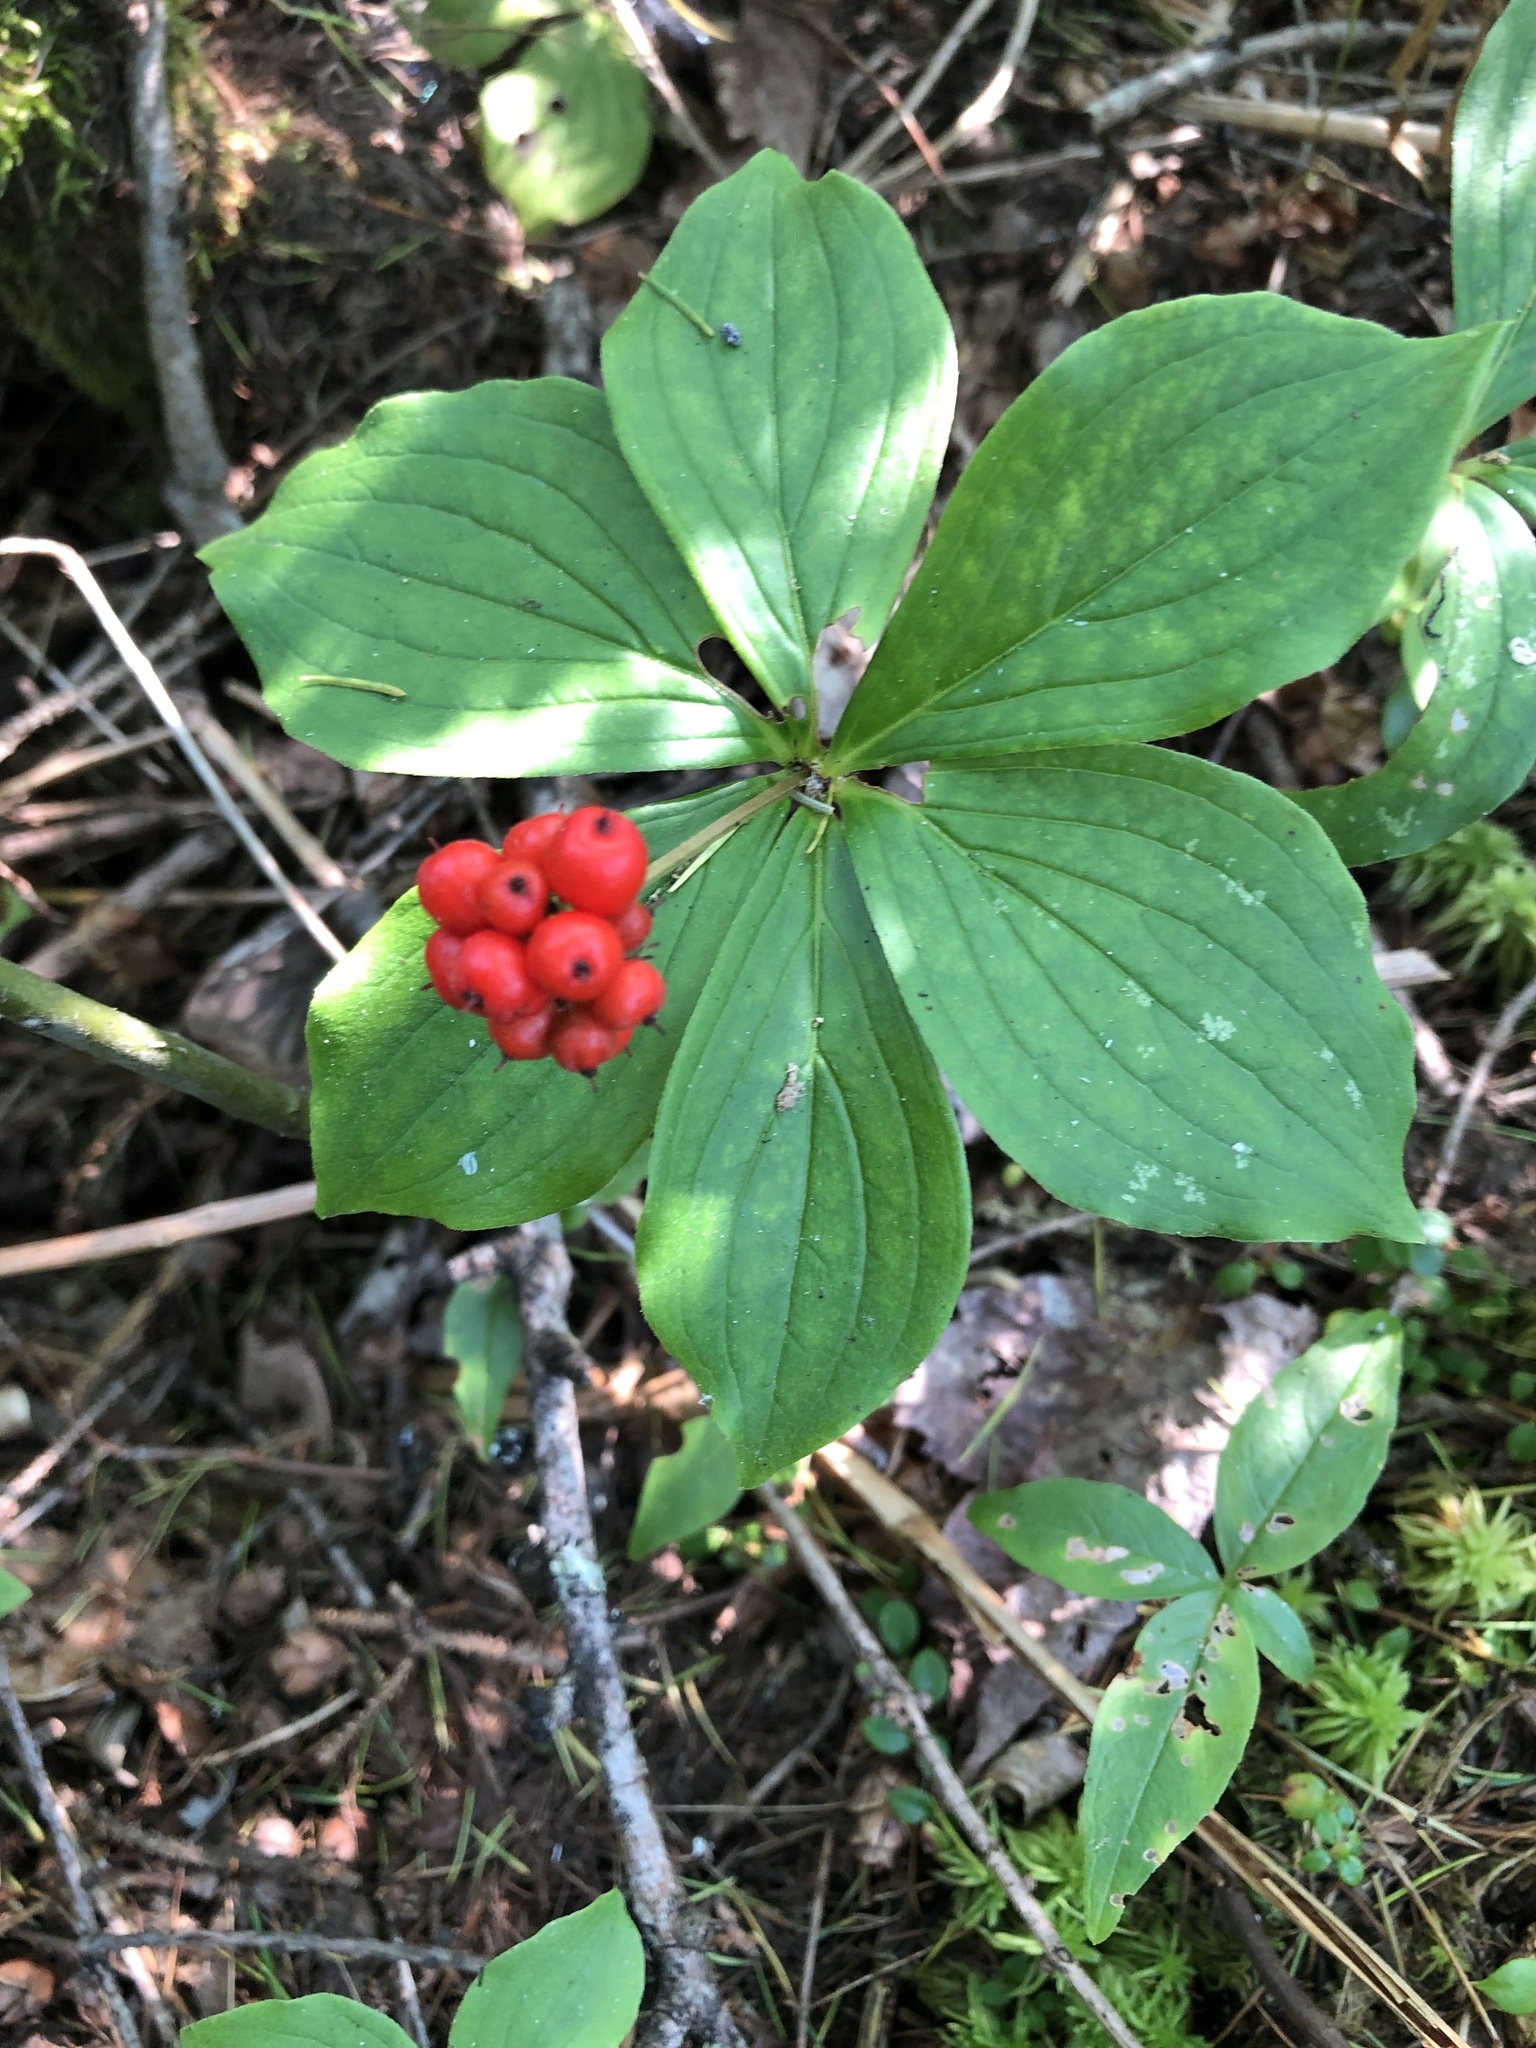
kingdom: Plantae
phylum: Tracheophyta
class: Magnoliopsida
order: Cornales
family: Cornaceae
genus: Cornus
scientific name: Cornus canadensis
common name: Creeping dogwood
